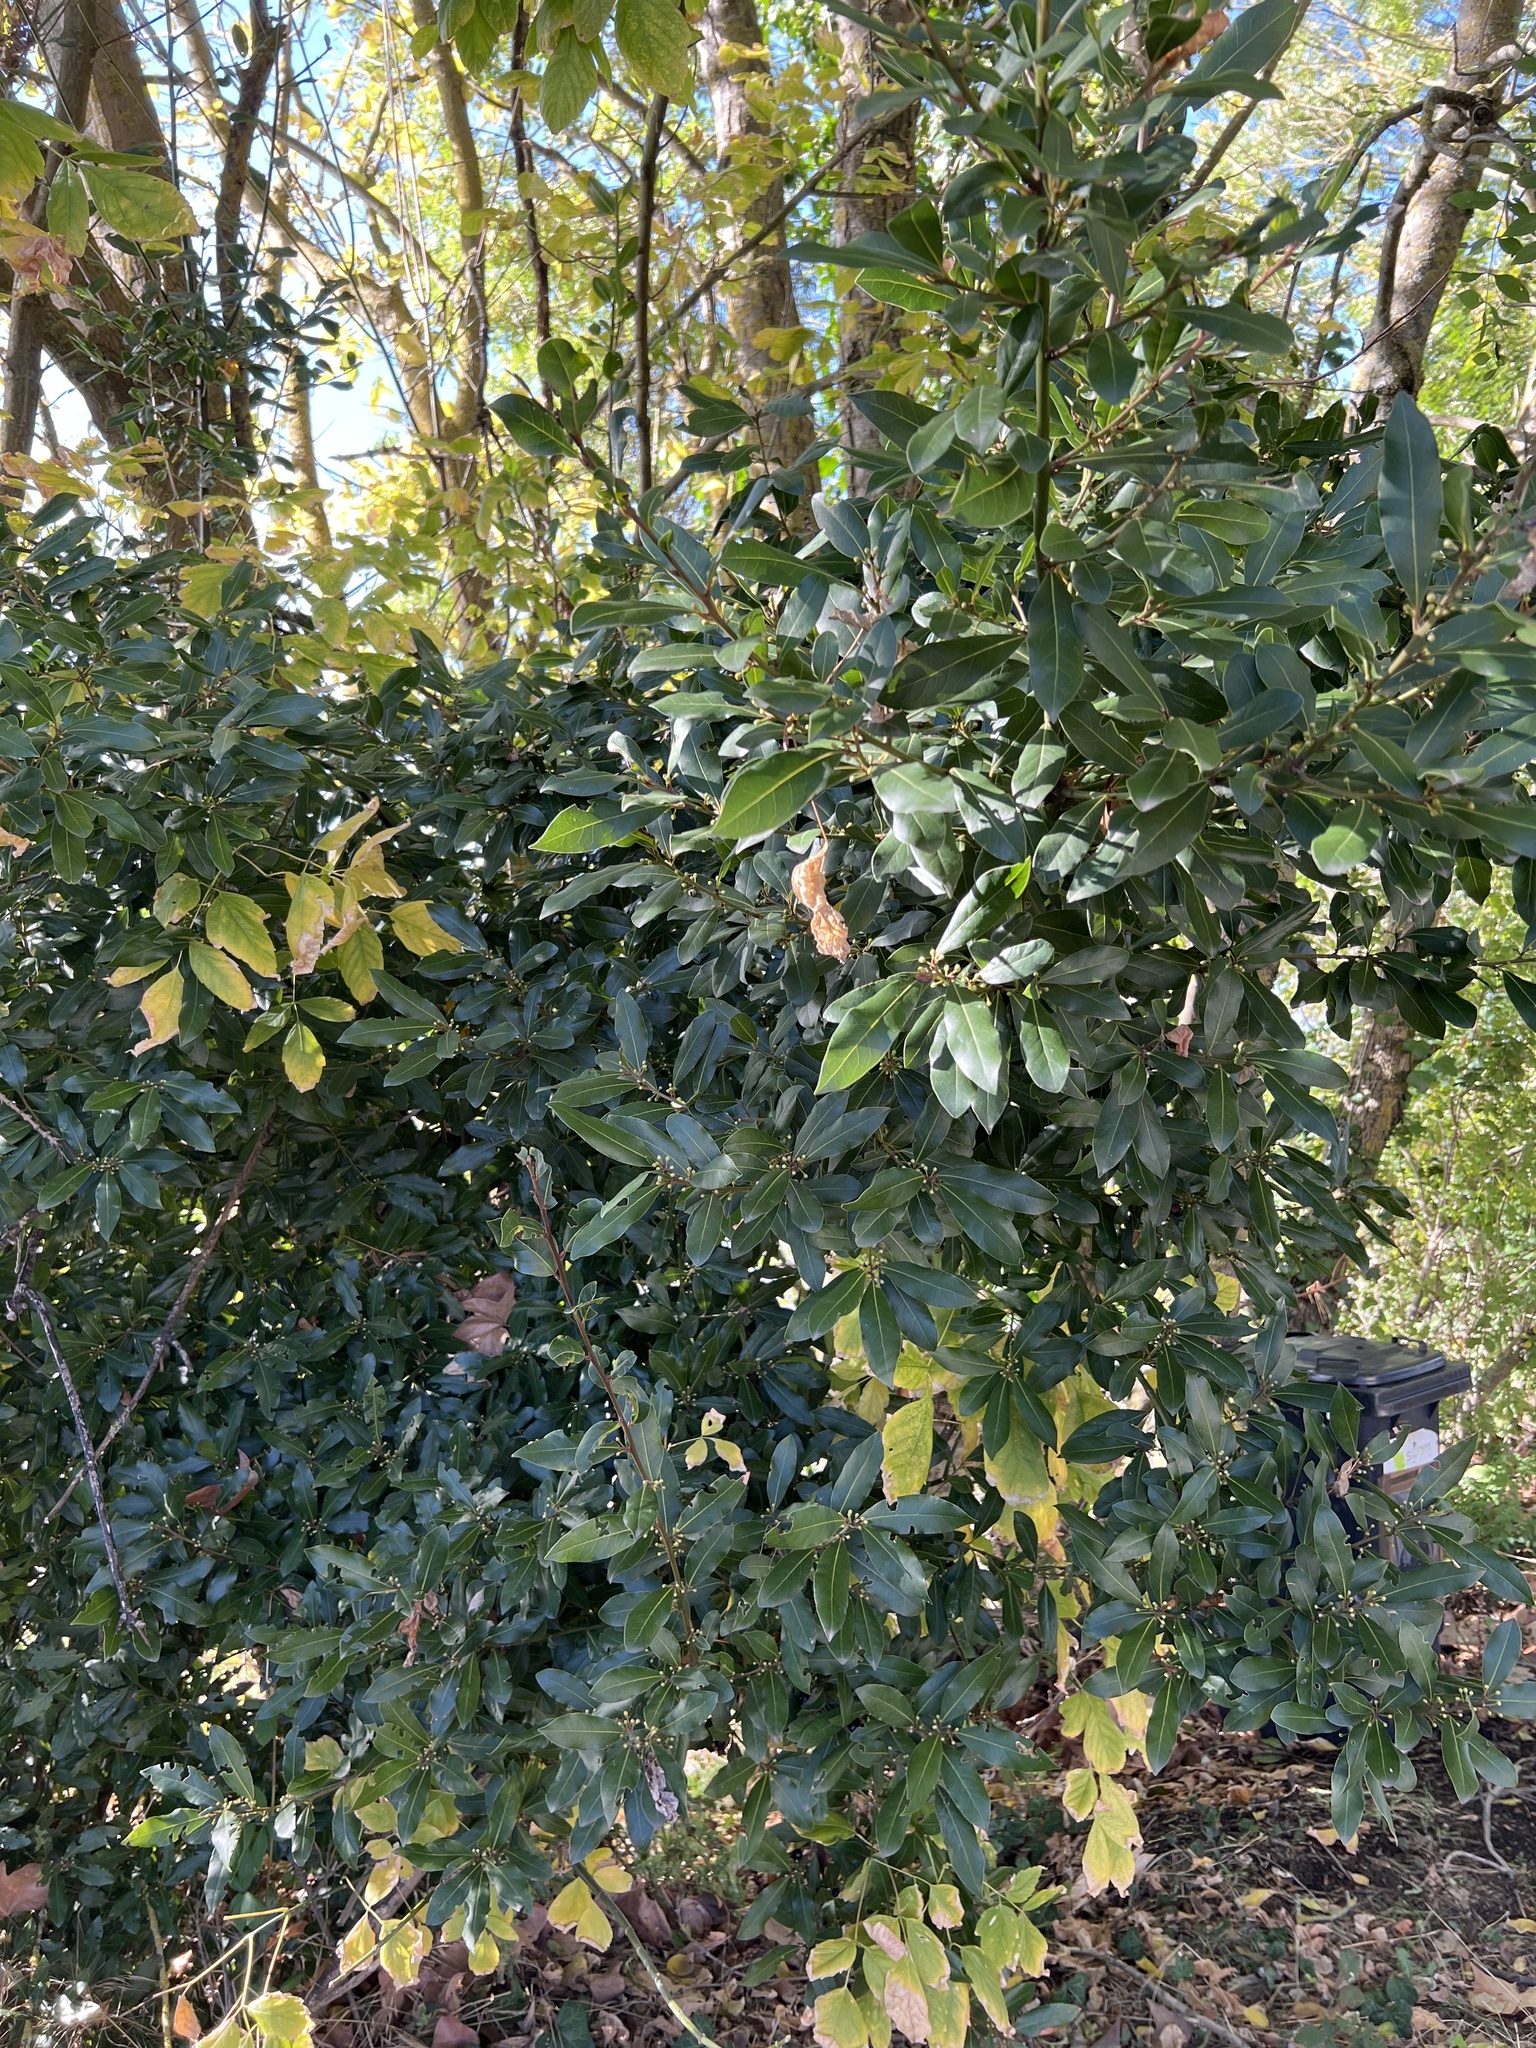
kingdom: Plantae
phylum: Tracheophyta
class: Magnoliopsida
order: Laurales
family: Lauraceae
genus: Laurus
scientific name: Laurus nobilis
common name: Bay
